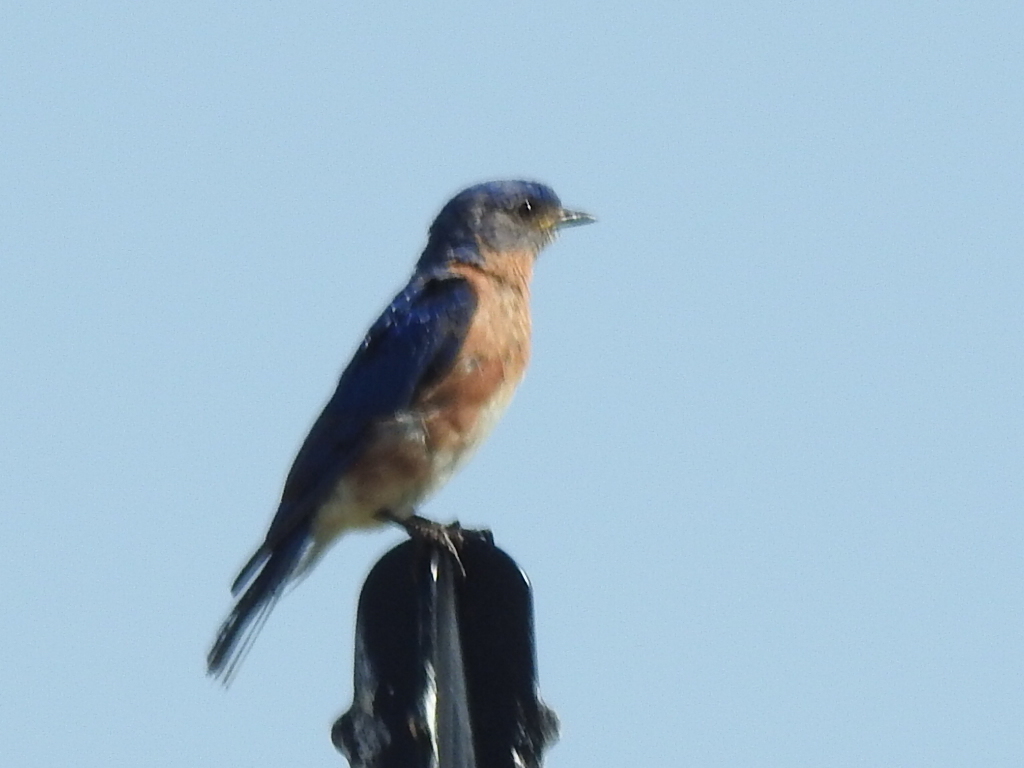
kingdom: Animalia
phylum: Chordata
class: Aves
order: Passeriformes
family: Turdidae
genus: Sialia
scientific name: Sialia sialis
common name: Eastern bluebird
